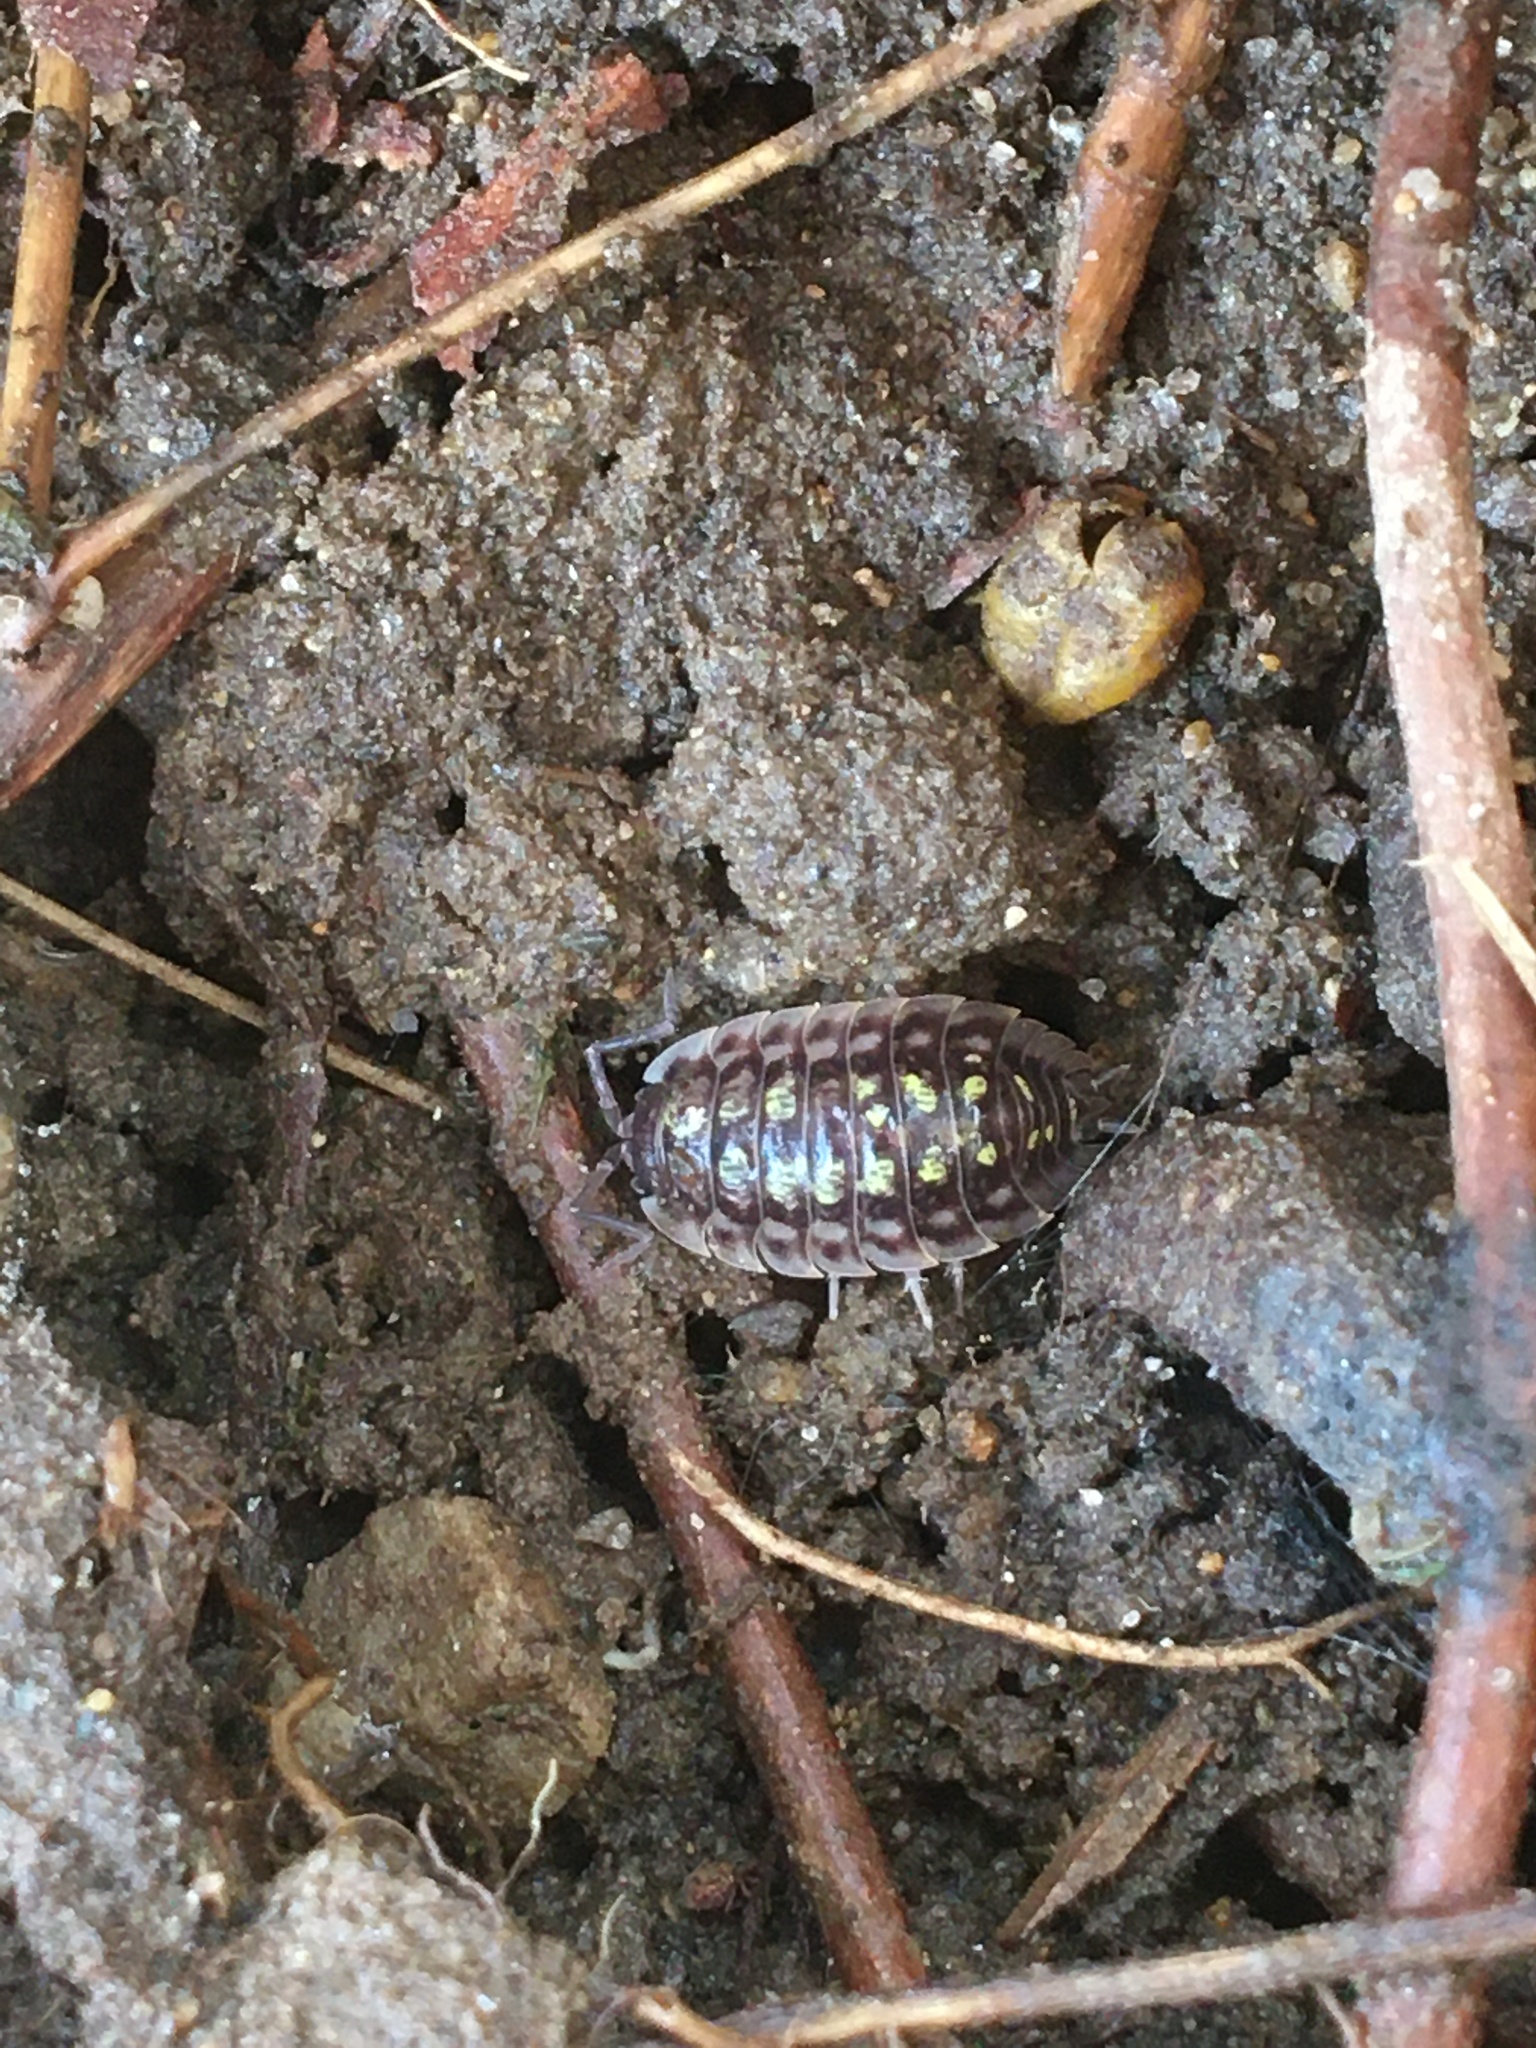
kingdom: Animalia
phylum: Arthropoda
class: Malacostraca
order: Isopoda
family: Oniscidae
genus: Oniscus
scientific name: Oniscus asellus
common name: Common shiny woodlouse
